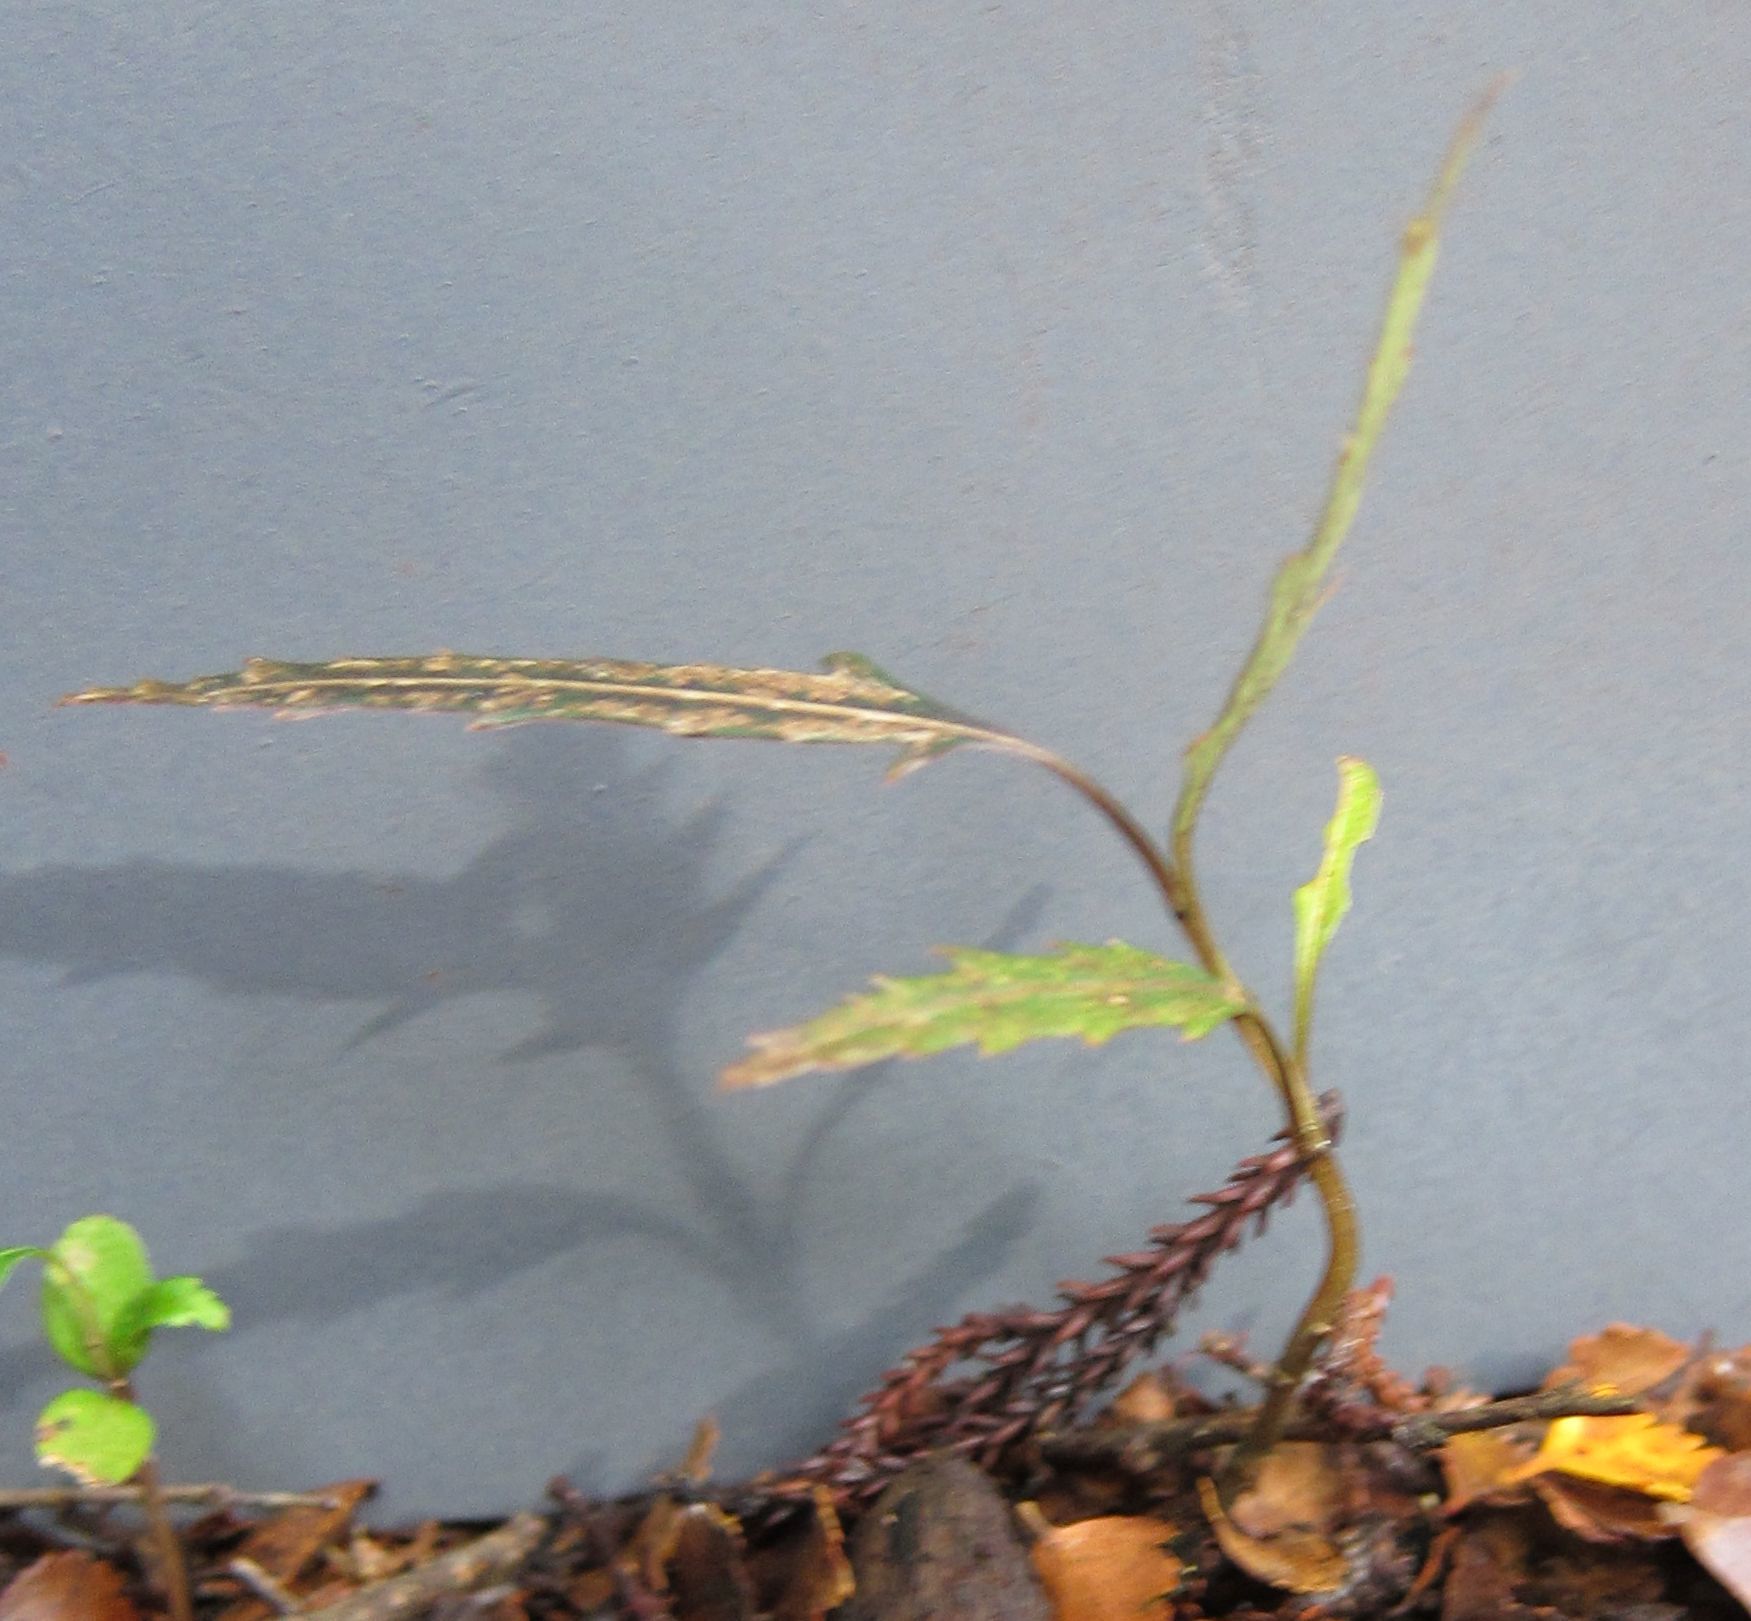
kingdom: Plantae
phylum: Tracheophyta
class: Magnoliopsida
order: Apiales
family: Araliaceae
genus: Pseudopanax
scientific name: Pseudopanax crassifolius
